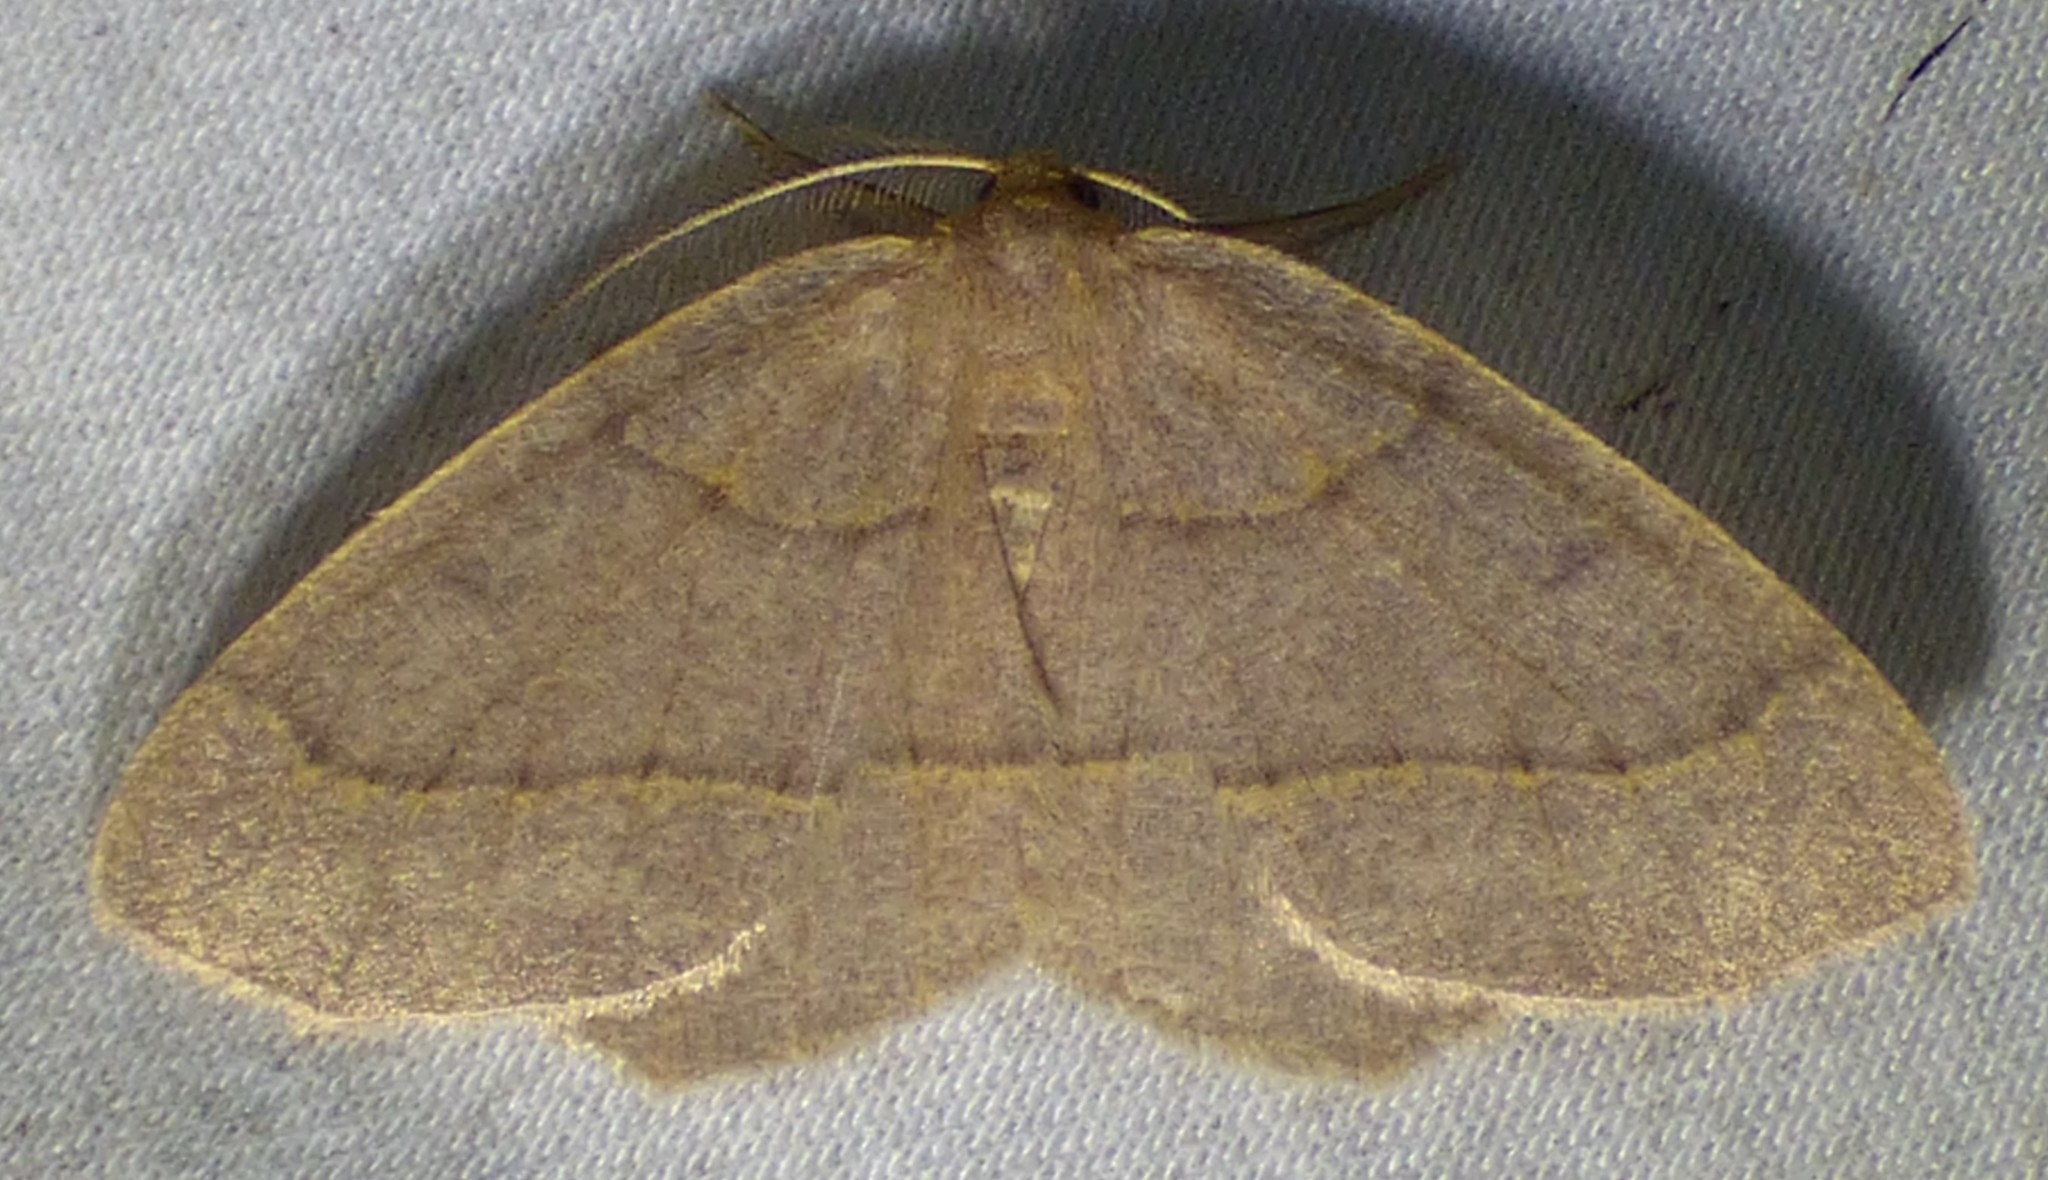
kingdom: Animalia
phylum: Arthropoda
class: Insecta
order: Lepidoptera
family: Geometridae
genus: Lambdina
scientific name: Lambdina fervidaria
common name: Curve-lined looper moth
